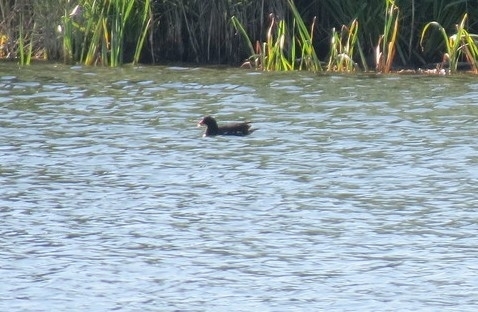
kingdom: Animalia
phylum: Chordata
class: Aves
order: Gruiformes
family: Rallidae
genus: Gallinula
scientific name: Gallinula chloropus
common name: Common moorhen
